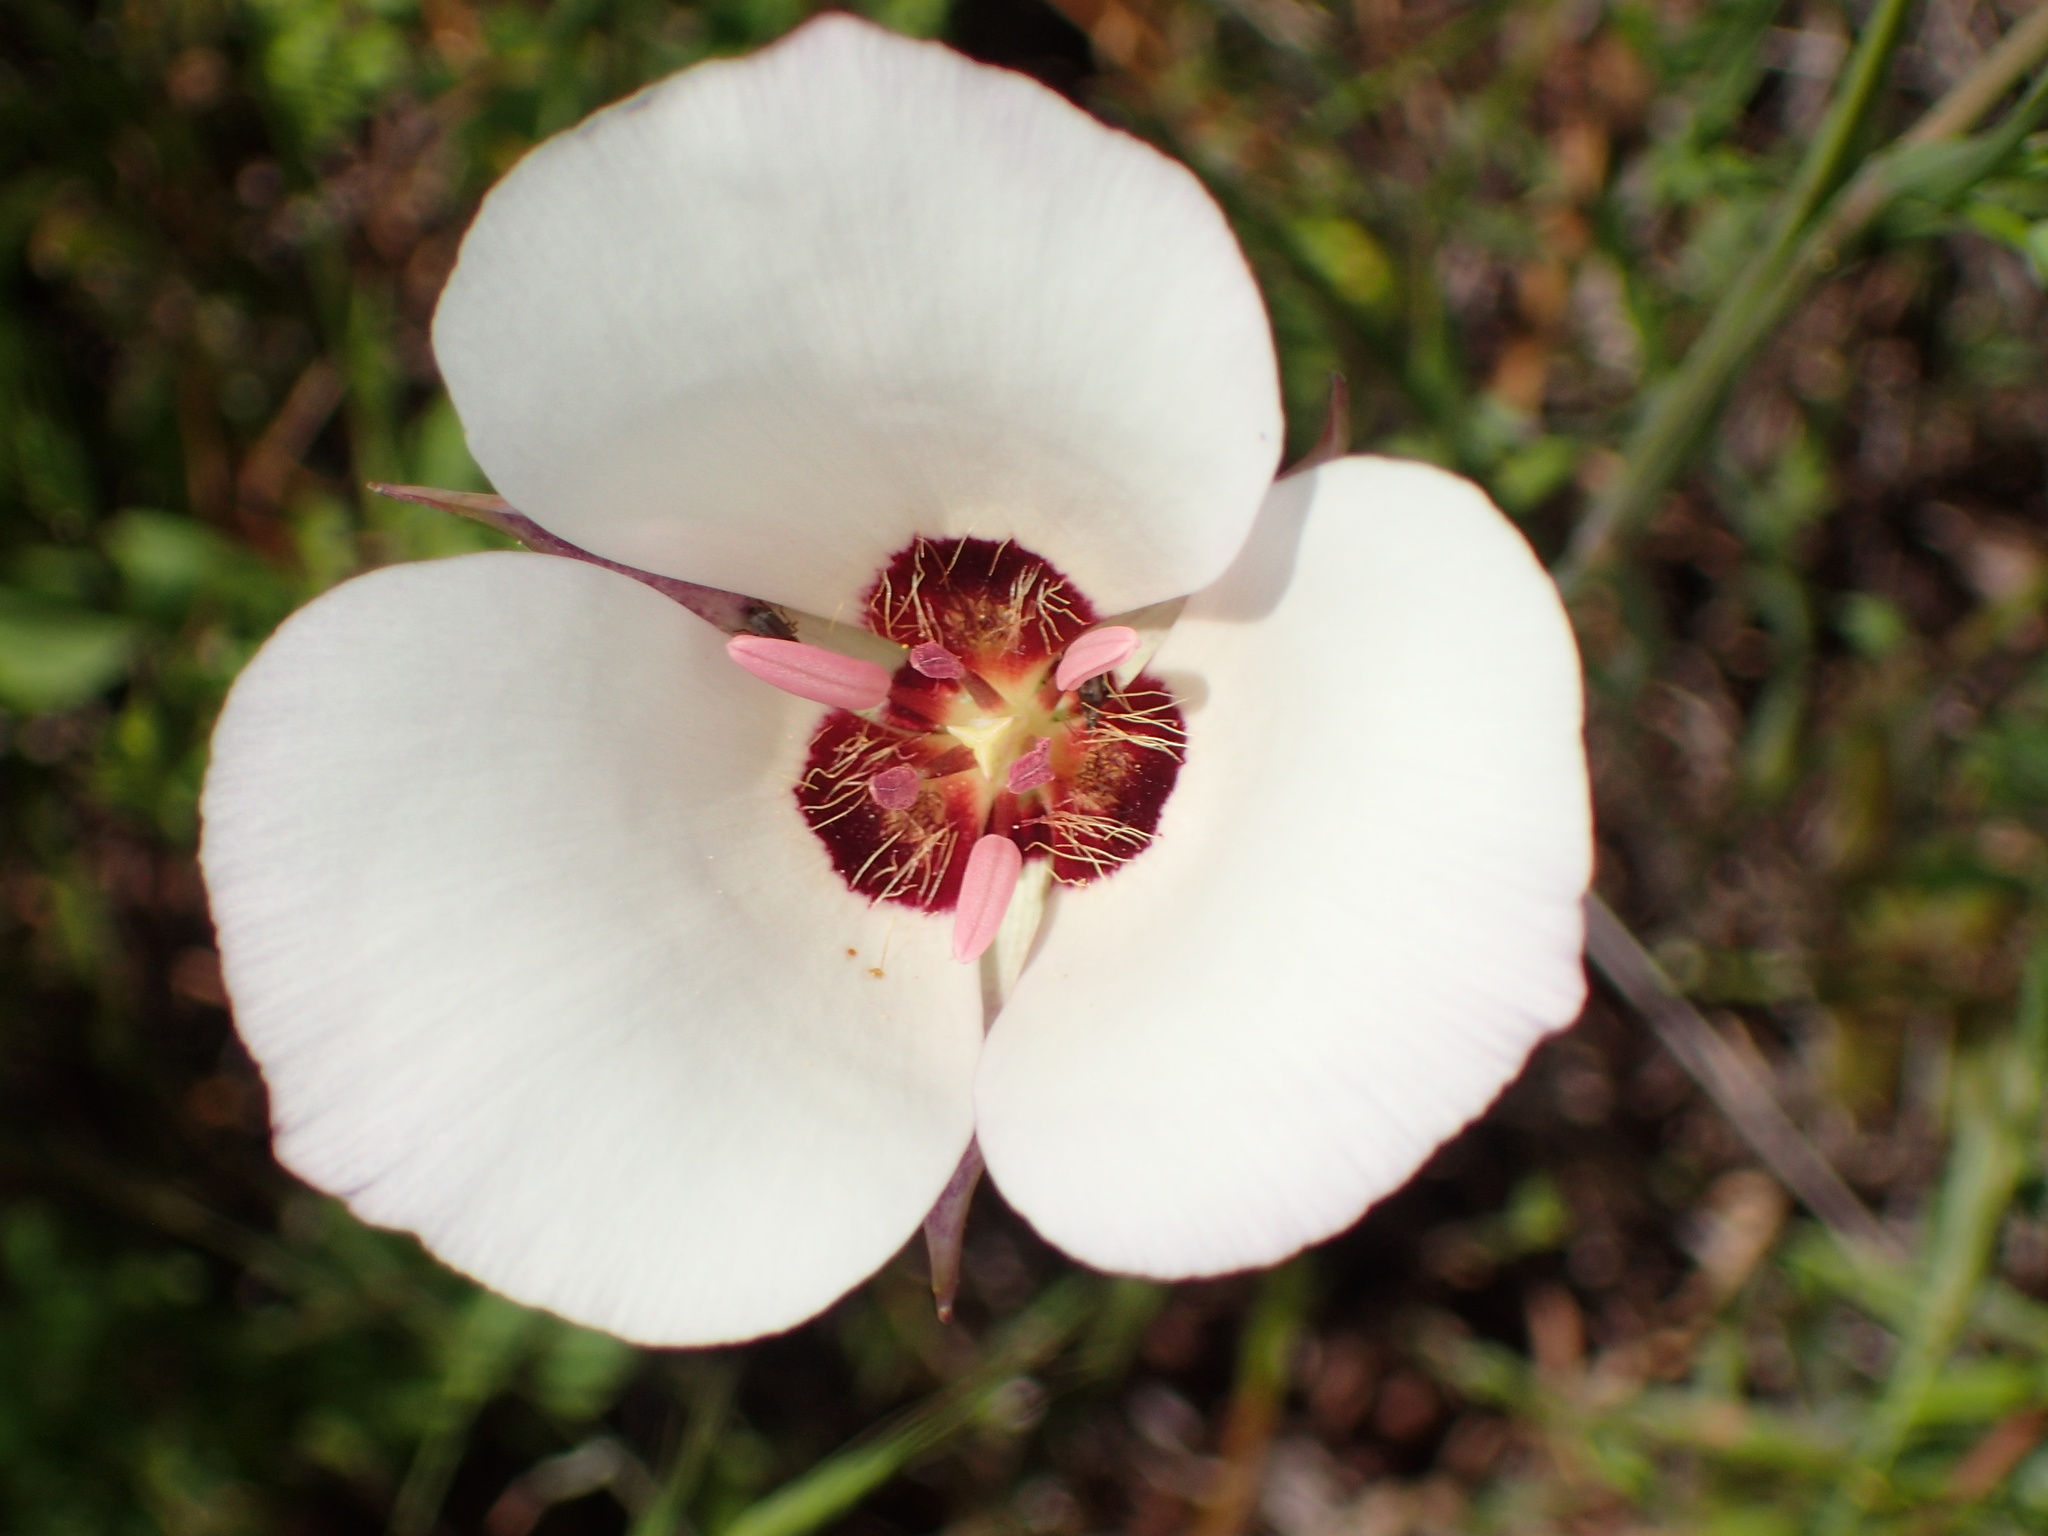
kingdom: Plantae
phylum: Tracheophyta
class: Liliopsida
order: Liliales
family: Liliaceae
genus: Calochortus
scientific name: Calochortus catalinae
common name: Catalina mariposa-lily
